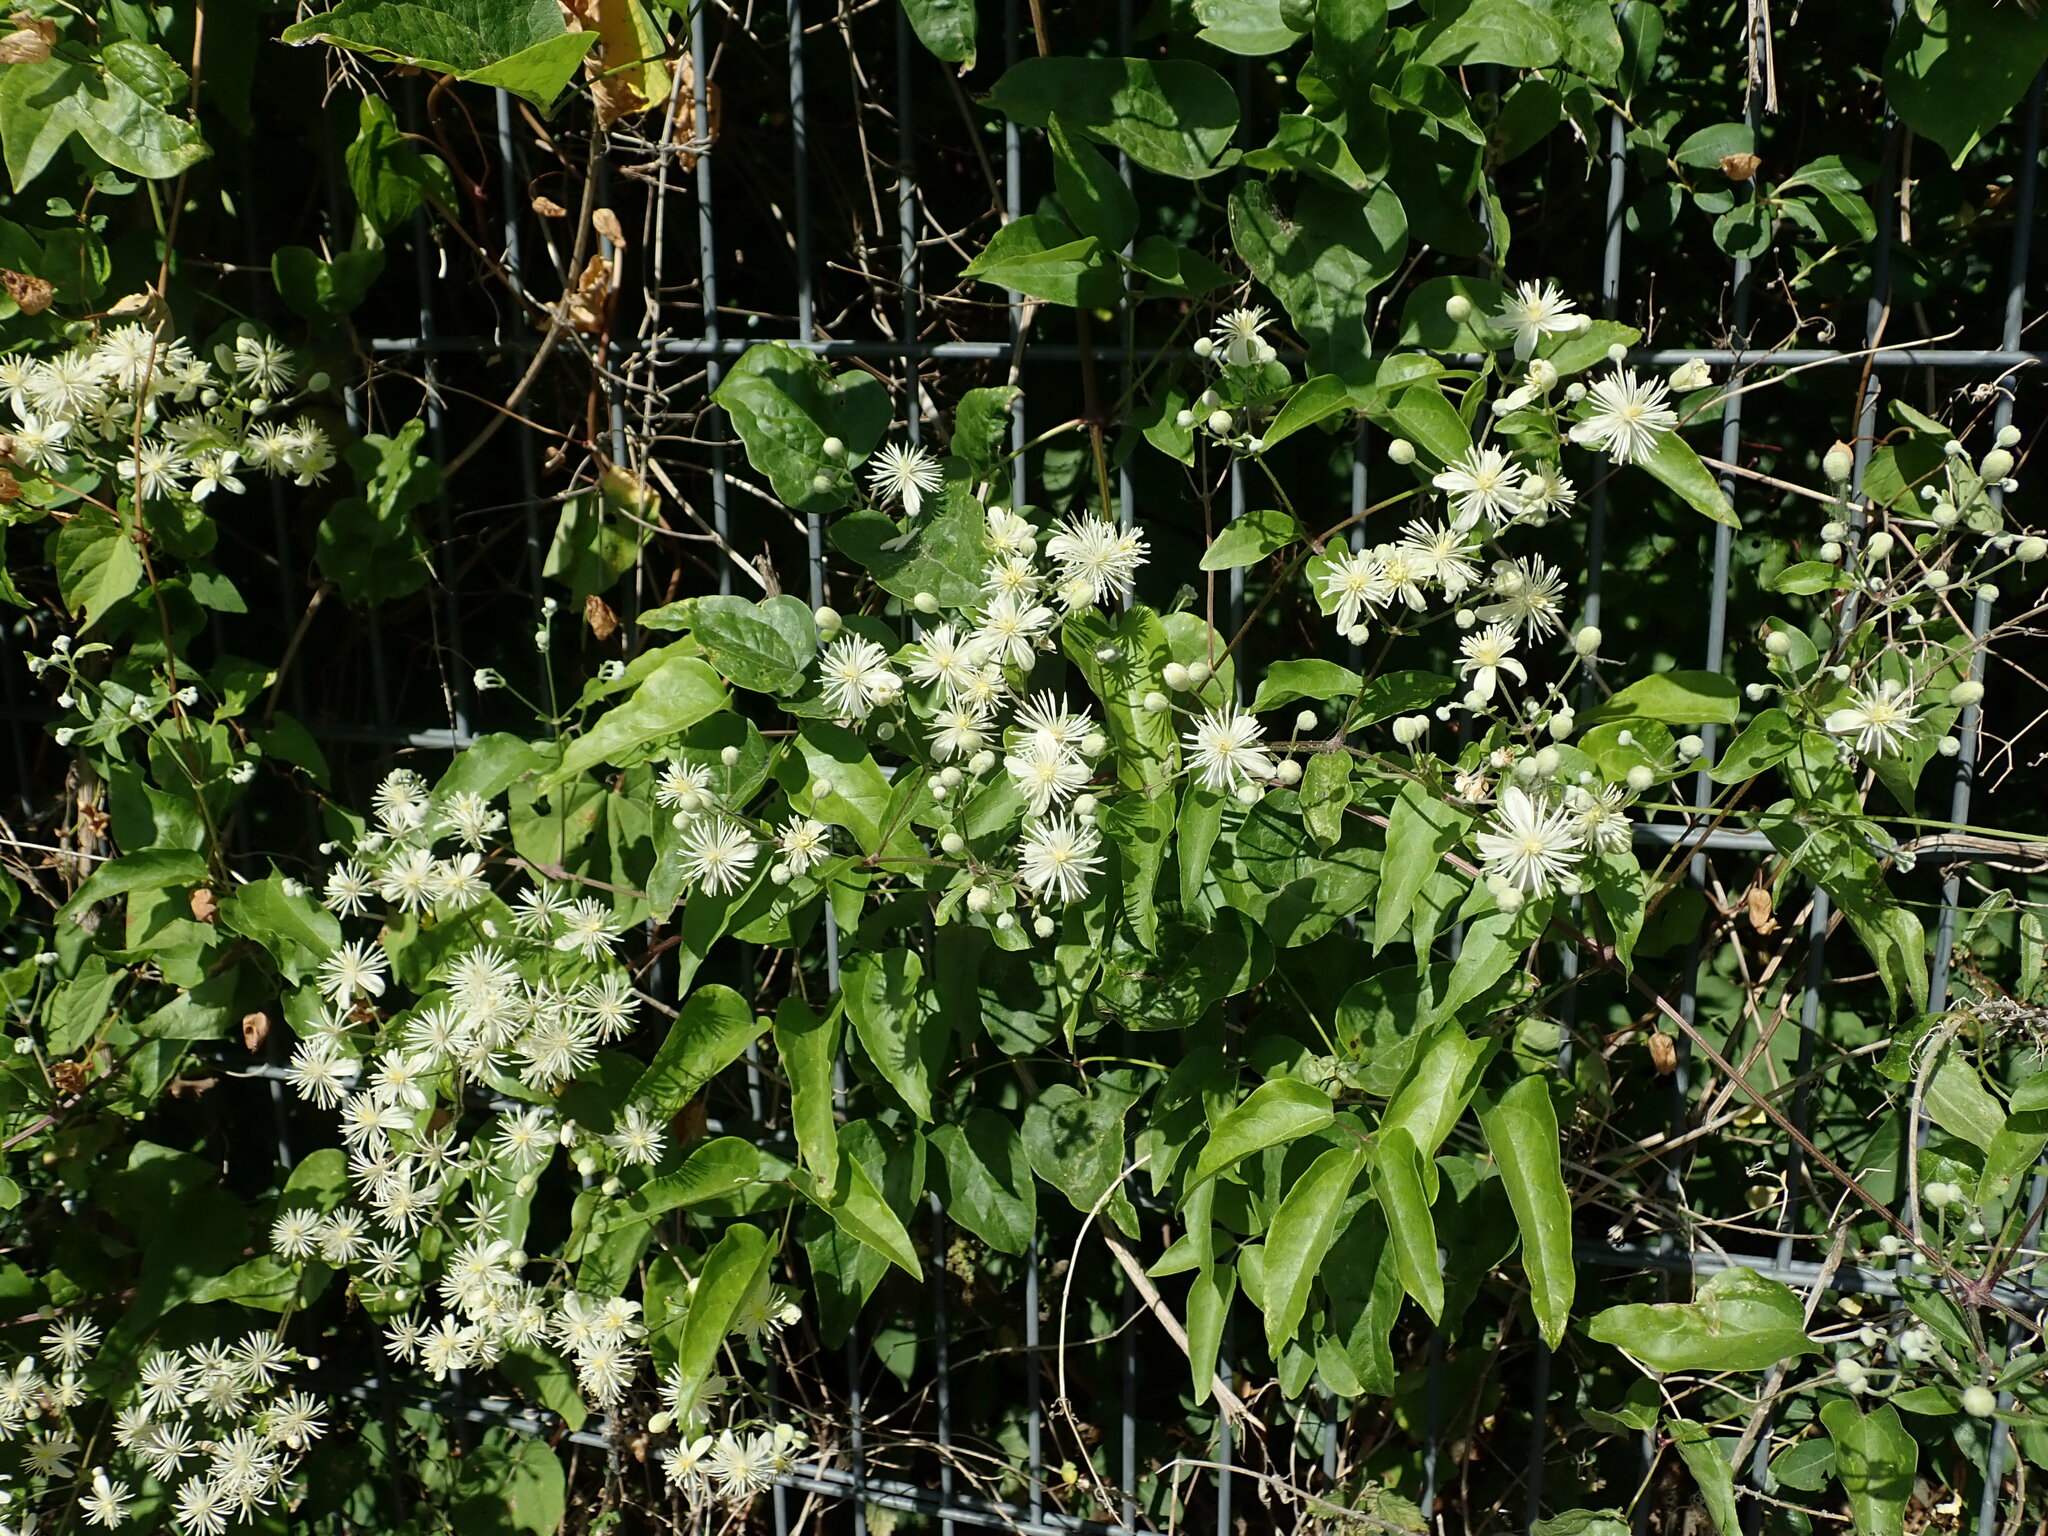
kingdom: Plantae
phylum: Tracheophyta
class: Magnoliopsida
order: Ranunculales
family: Ranunculaceae
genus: Clematis
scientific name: Clematis vitalba
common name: Evergreen clematis
